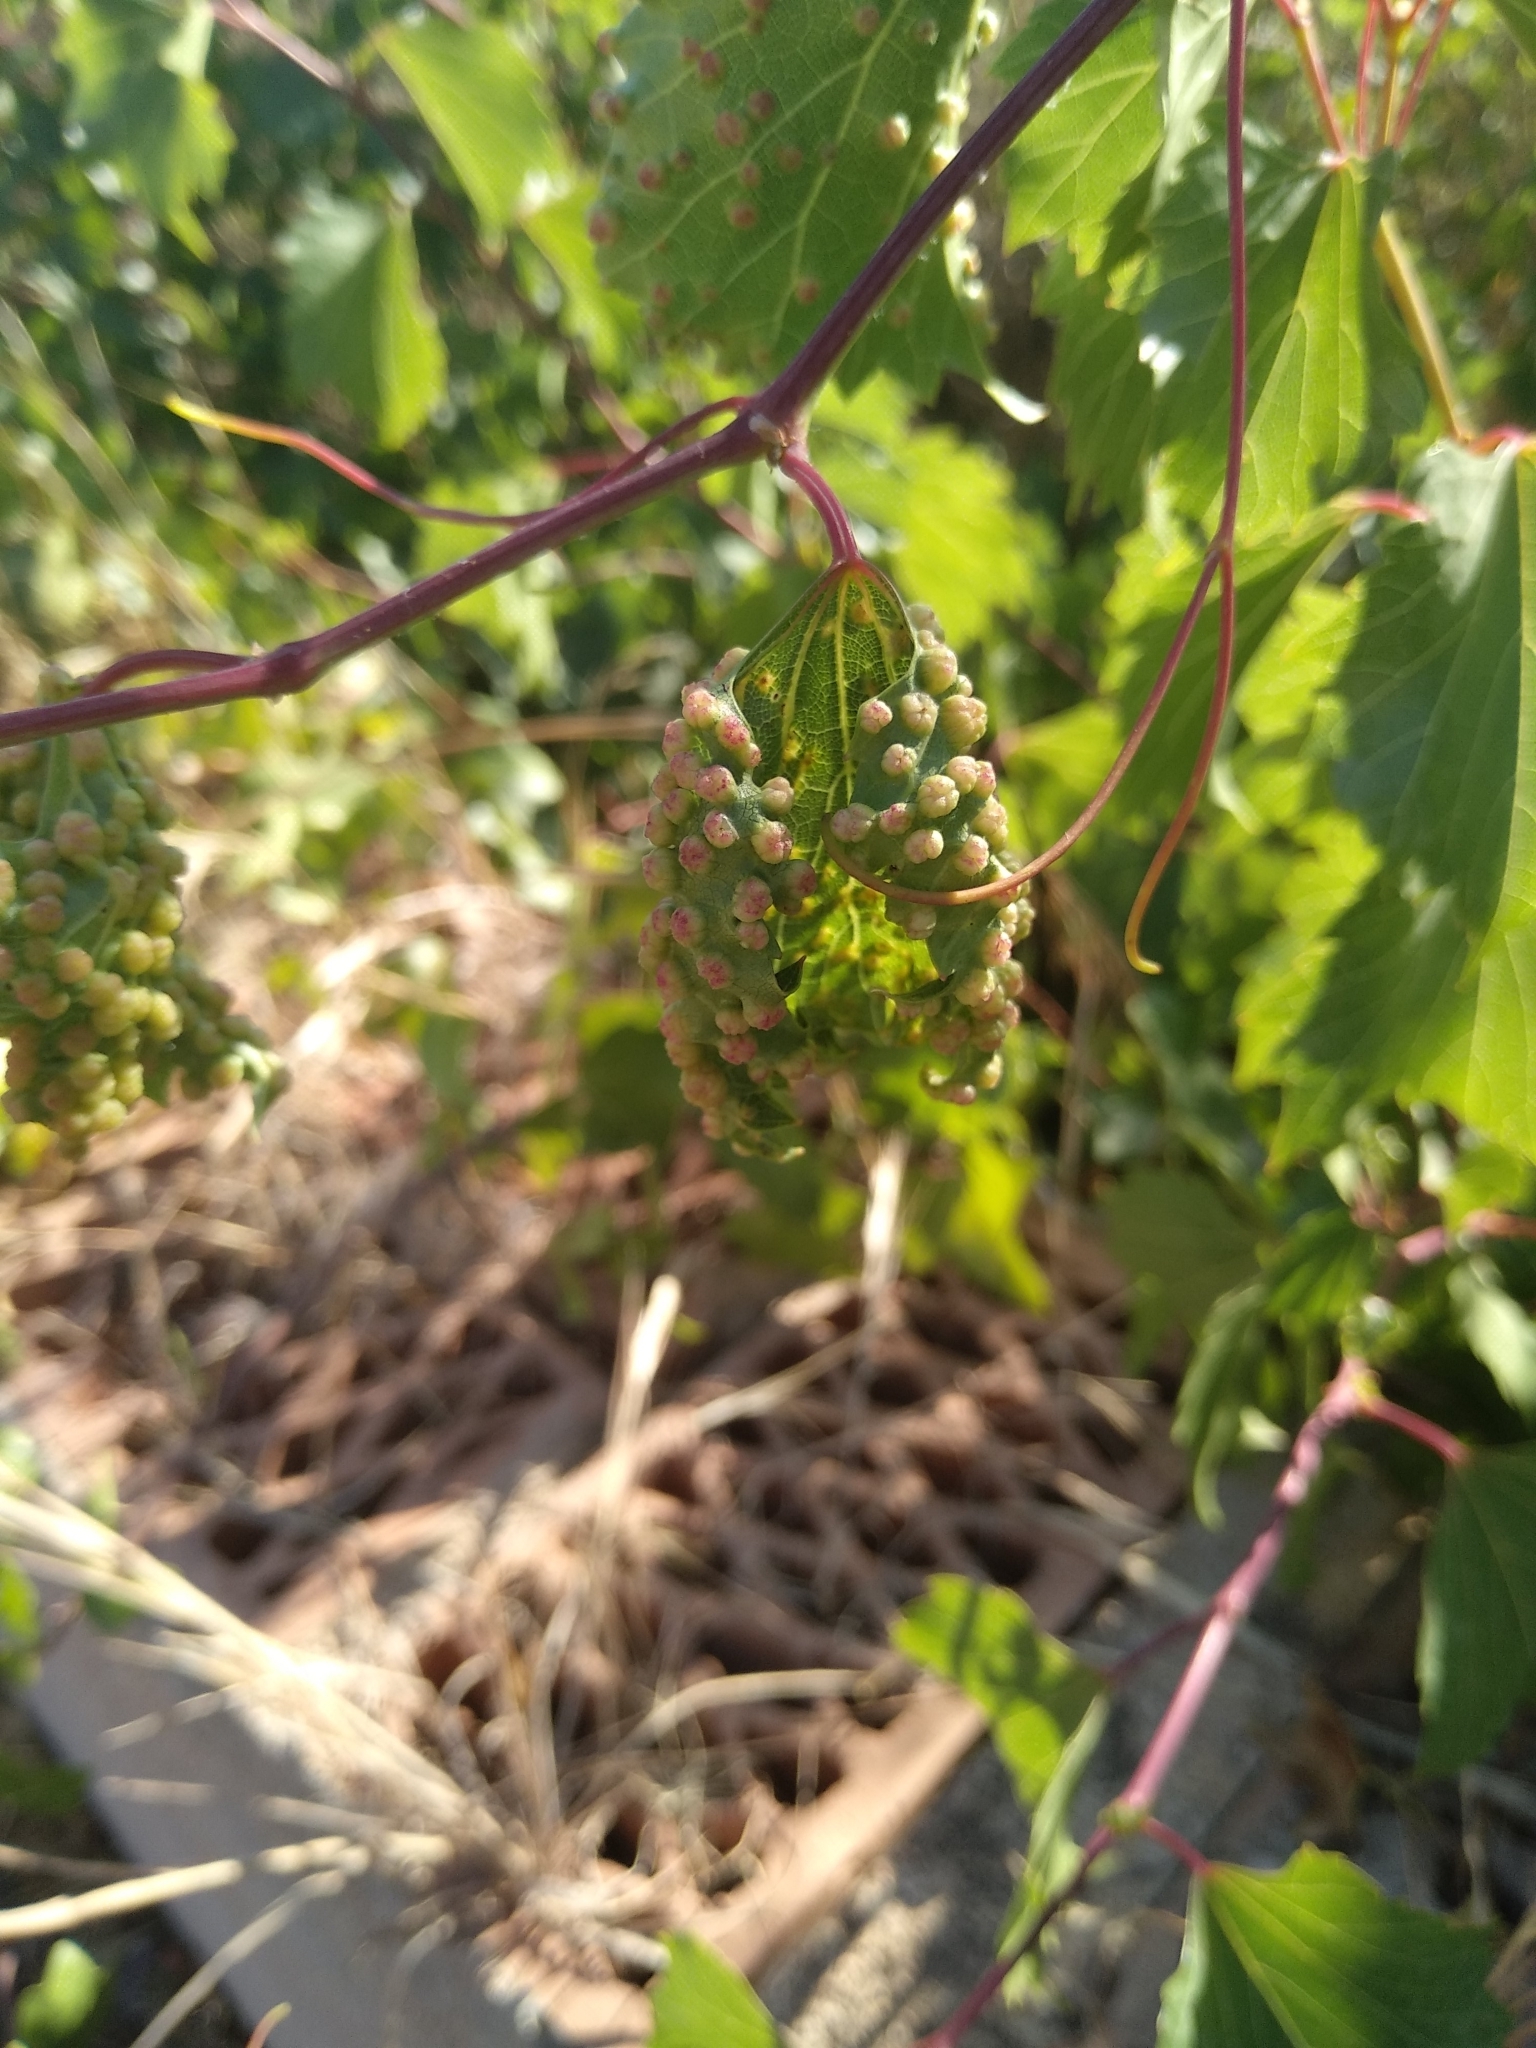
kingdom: Animalia
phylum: Arthropoda
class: Insecta
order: Hemiptera
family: Phylloxeridae
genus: Daktulosphaira
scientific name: Daktulosphaira vitifoliae
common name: Grape phylloxera
